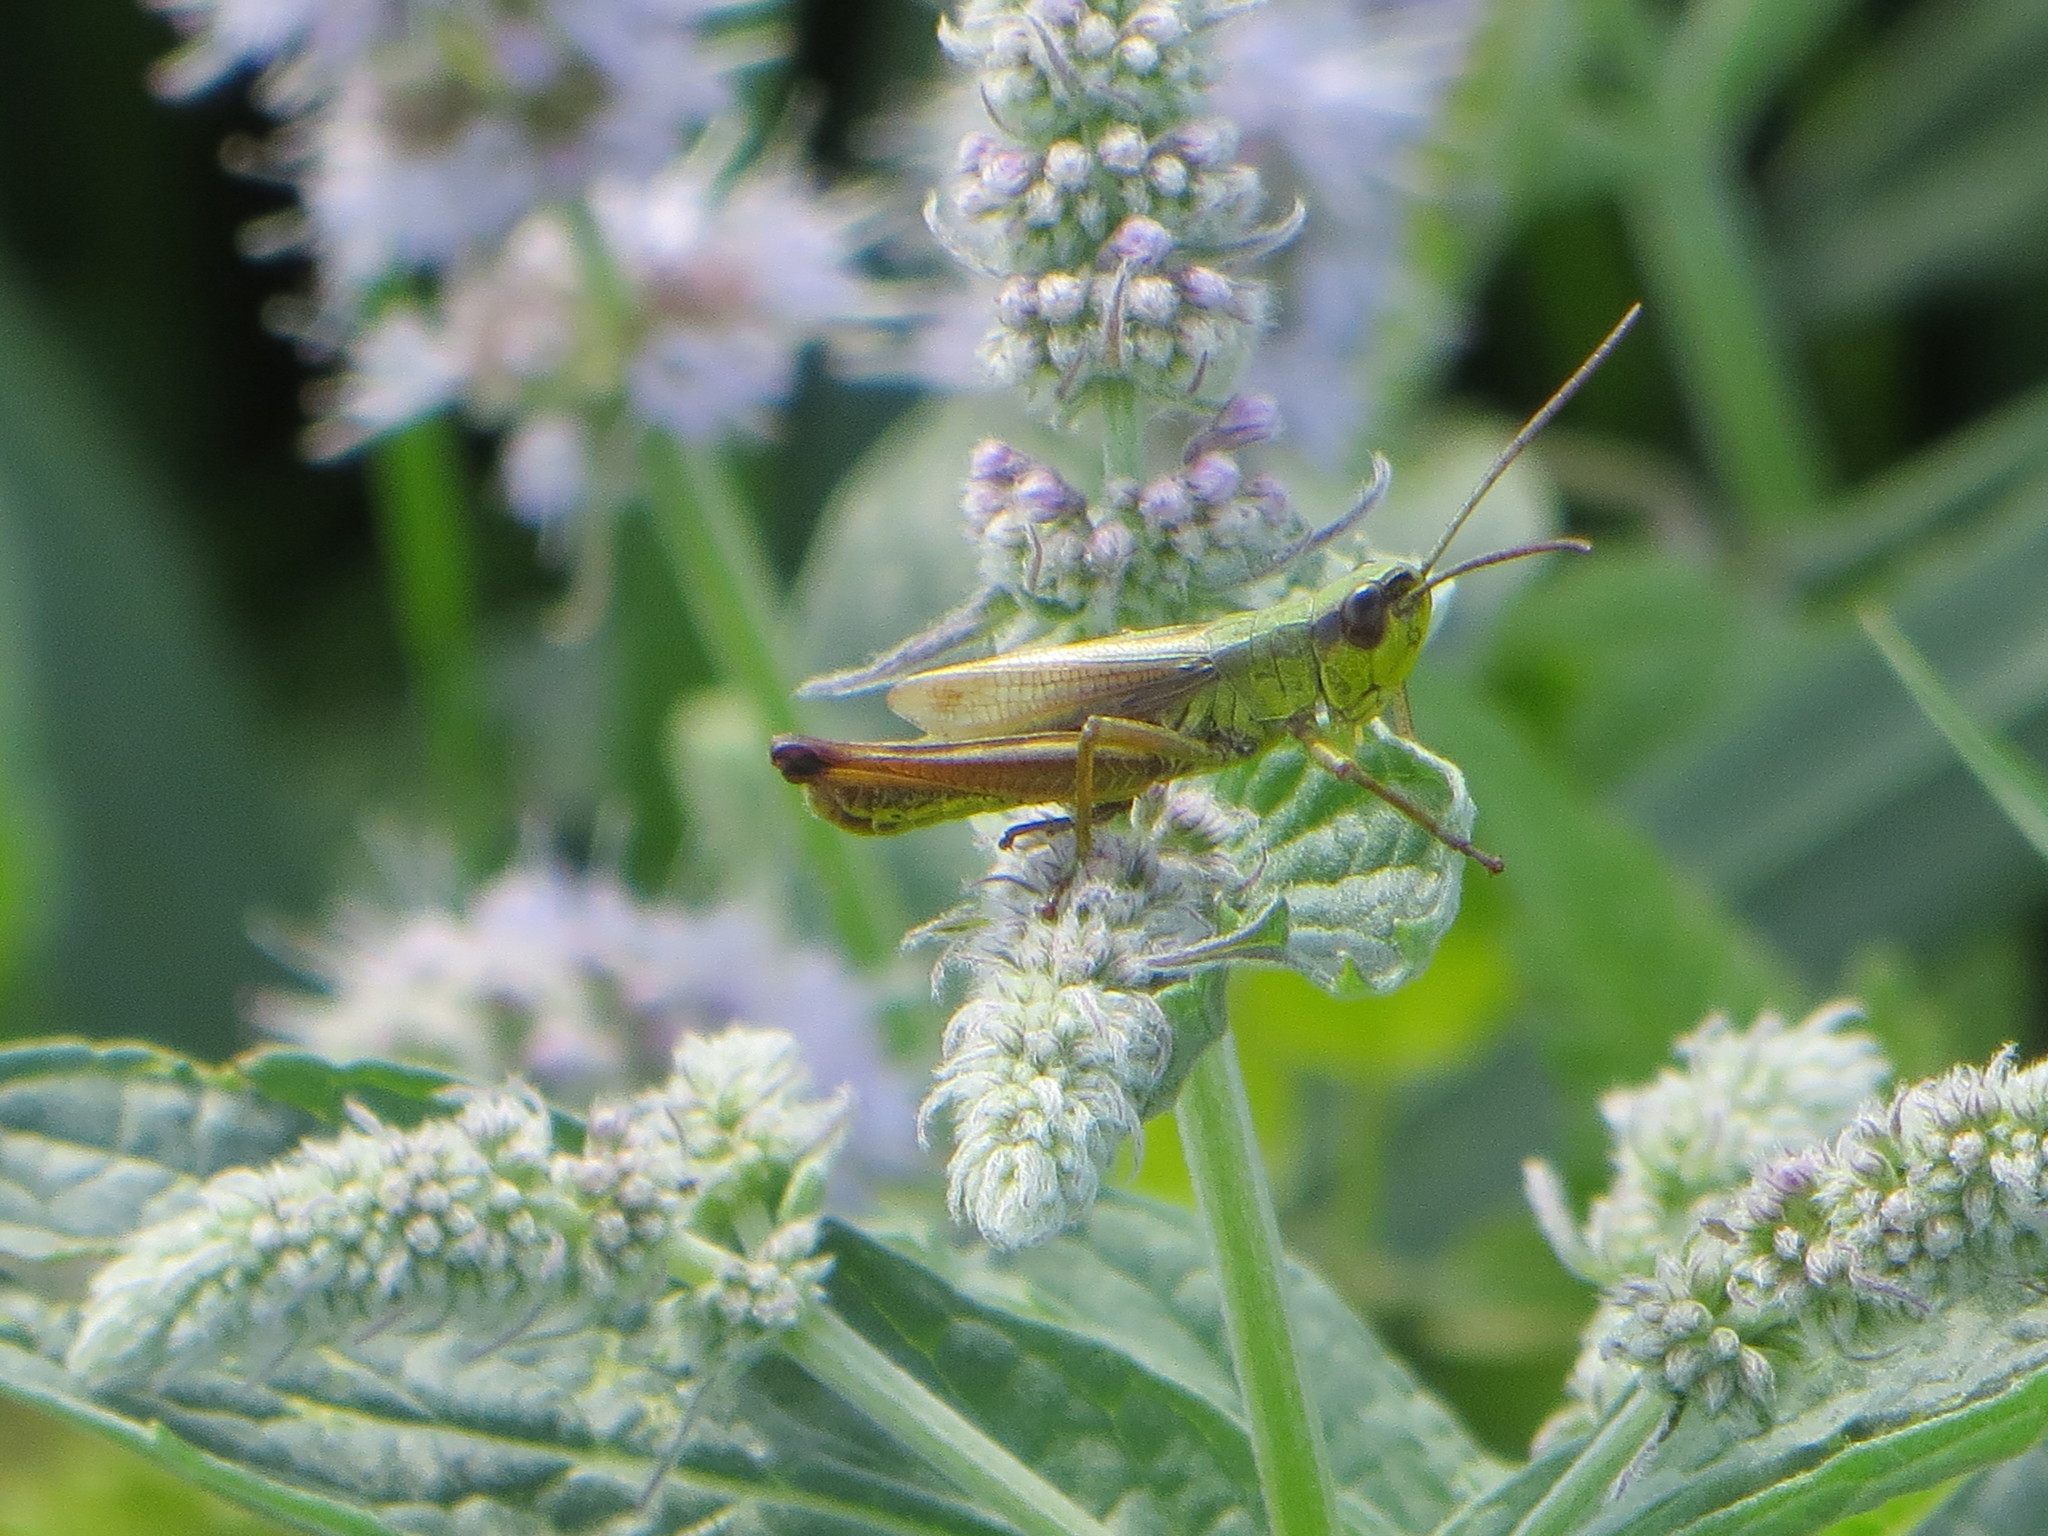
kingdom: Animalia
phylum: Arthropoda
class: Insecta
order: Orthoptera
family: Acrididae
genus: Pseudochorthippus
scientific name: Pseudochorthippus parallelus
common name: Meadow grasshopper
